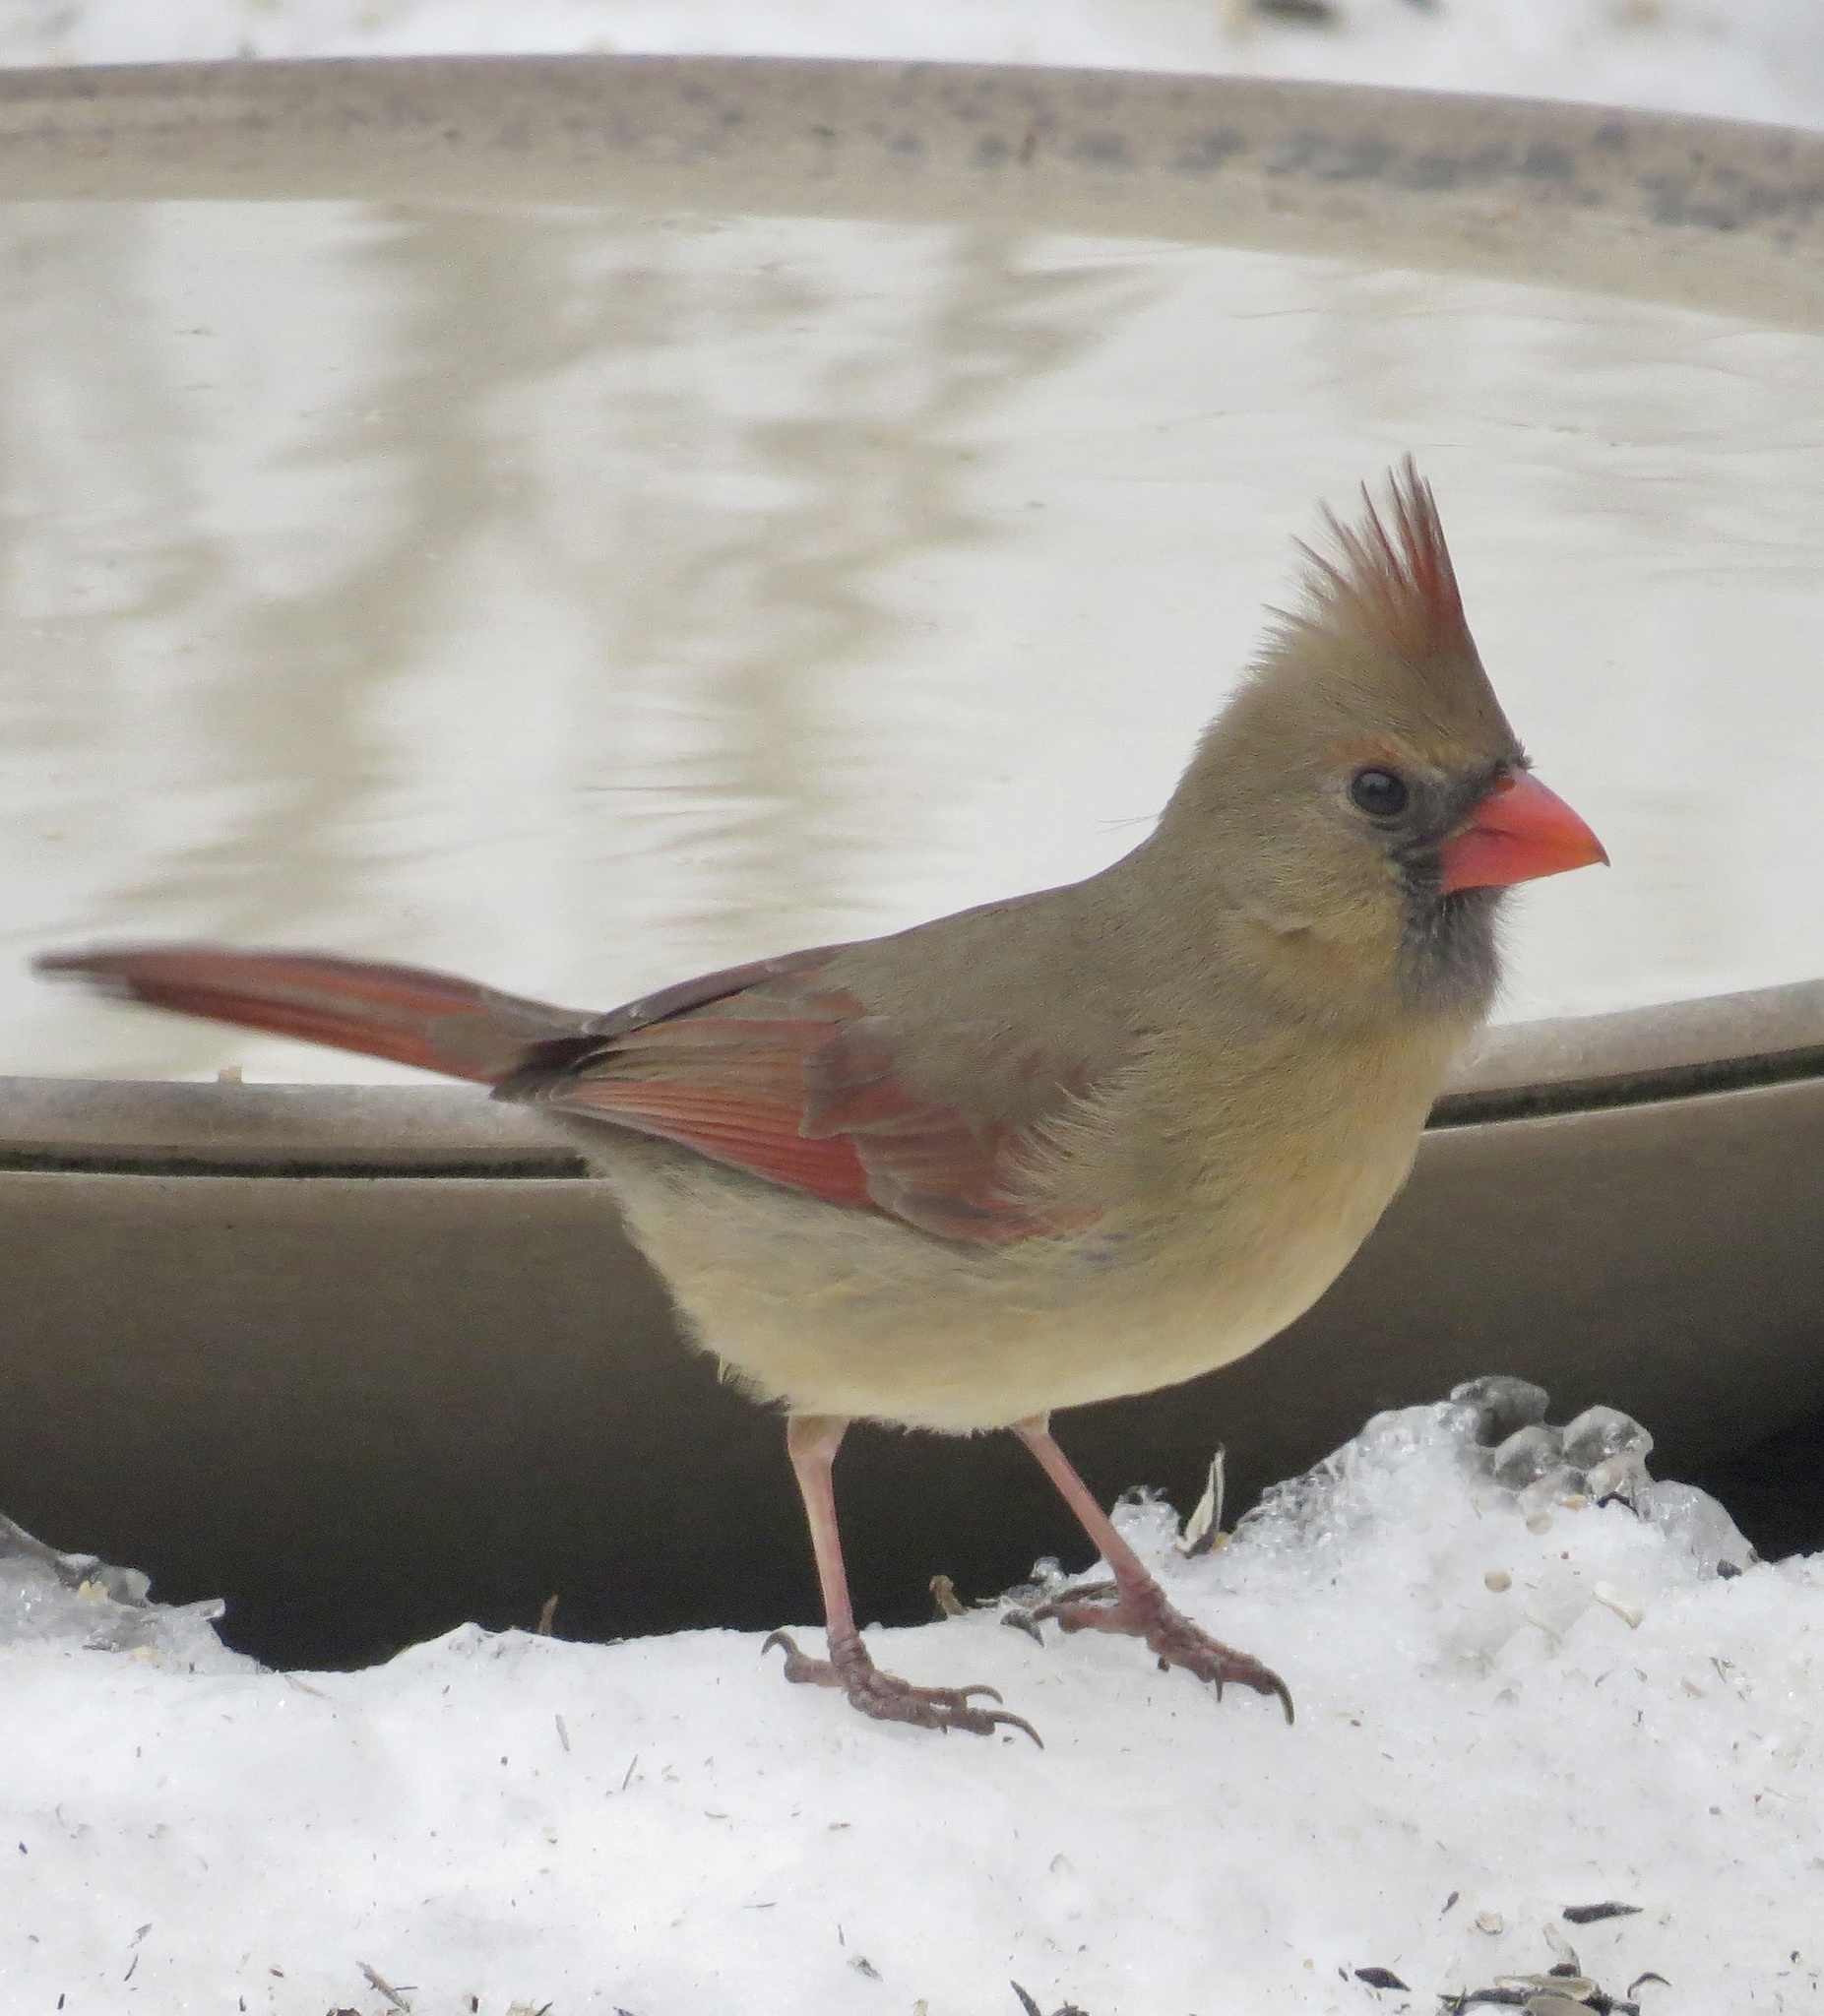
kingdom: Animalia
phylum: Chordata
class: Aves
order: Passeriformes
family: Cardinalidae
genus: Cardinalis
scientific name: Cardinalis cardinalis
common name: Northern cardinal
